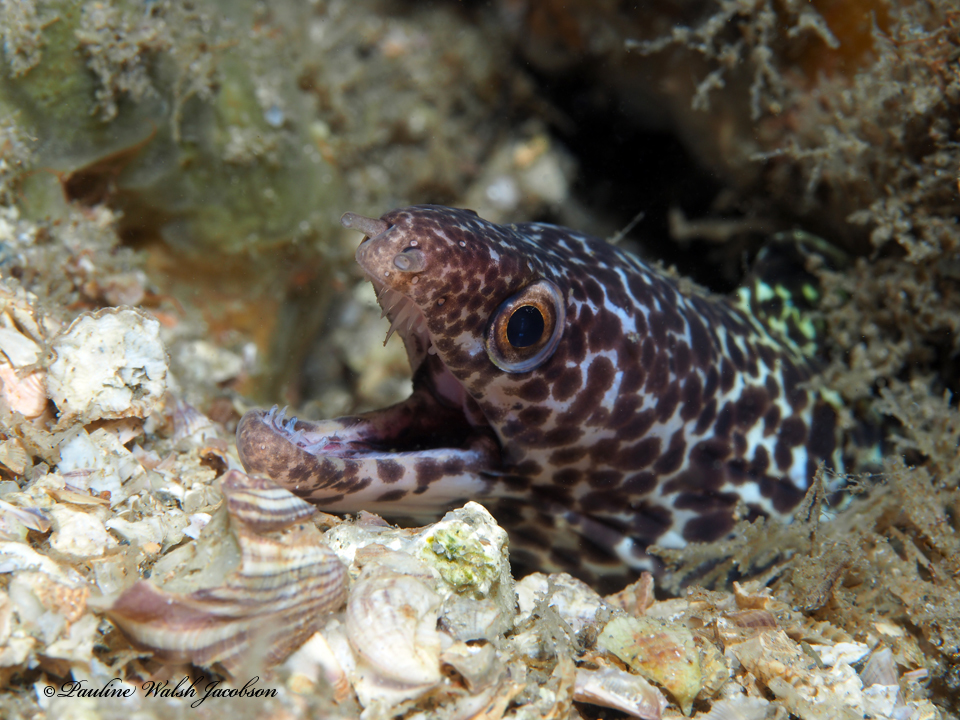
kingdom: Animalia
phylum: Chordata
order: Anguilliformes
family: Muraenidae
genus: Gymnothorax
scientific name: Gymnothorax moringa
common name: Spotted moray
